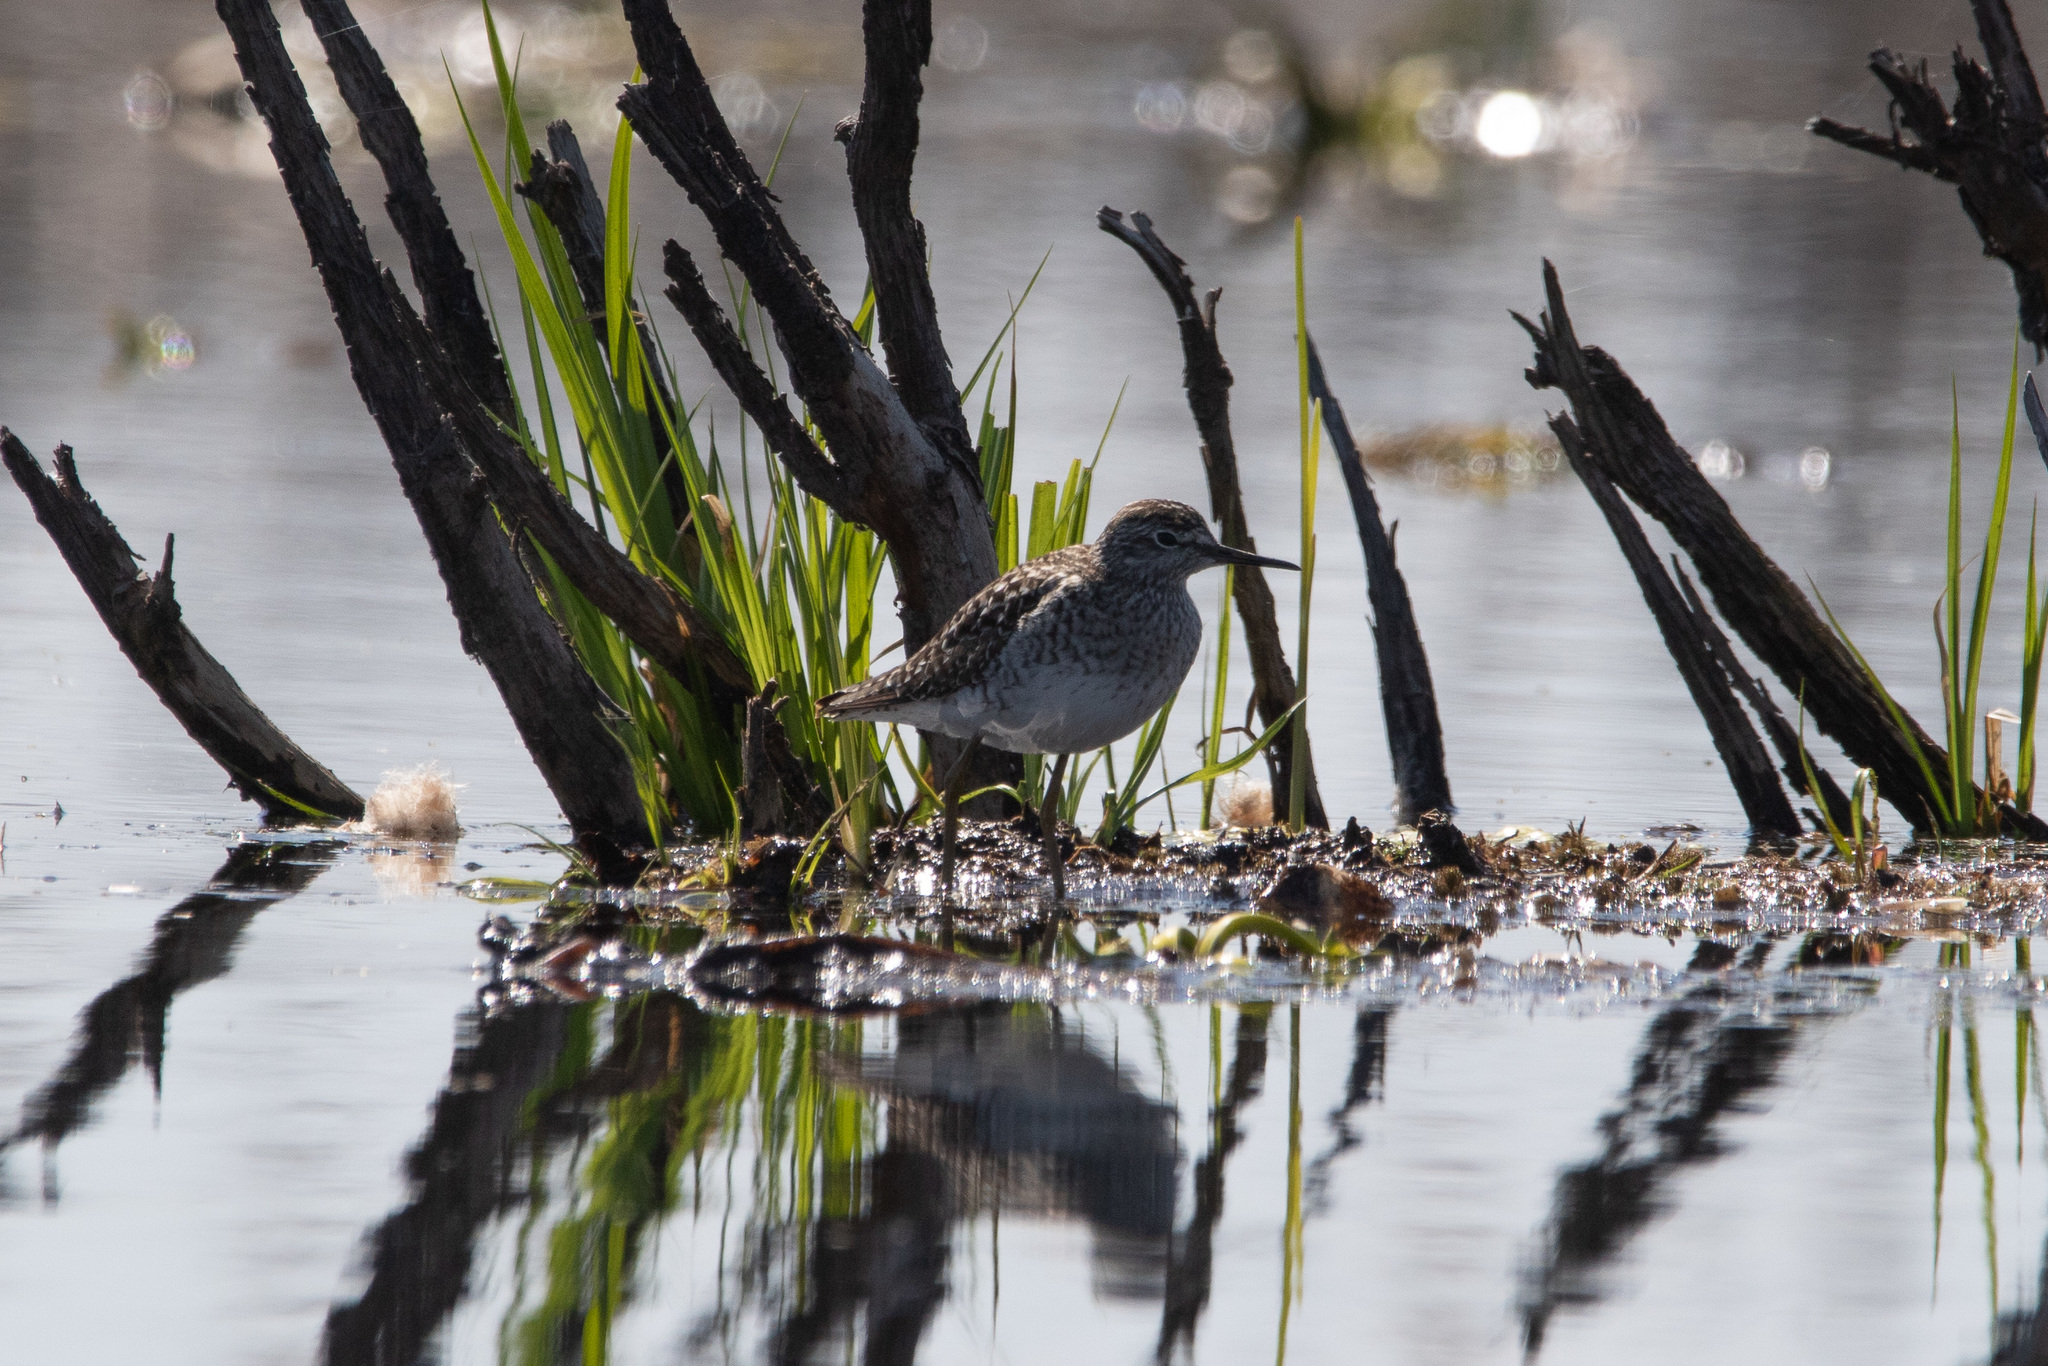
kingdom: Animalia
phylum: Chordata
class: Aves
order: Charadriiformes
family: Scolopacidae
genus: Tringa
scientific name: Tringa glareola
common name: Wood sandpiper
